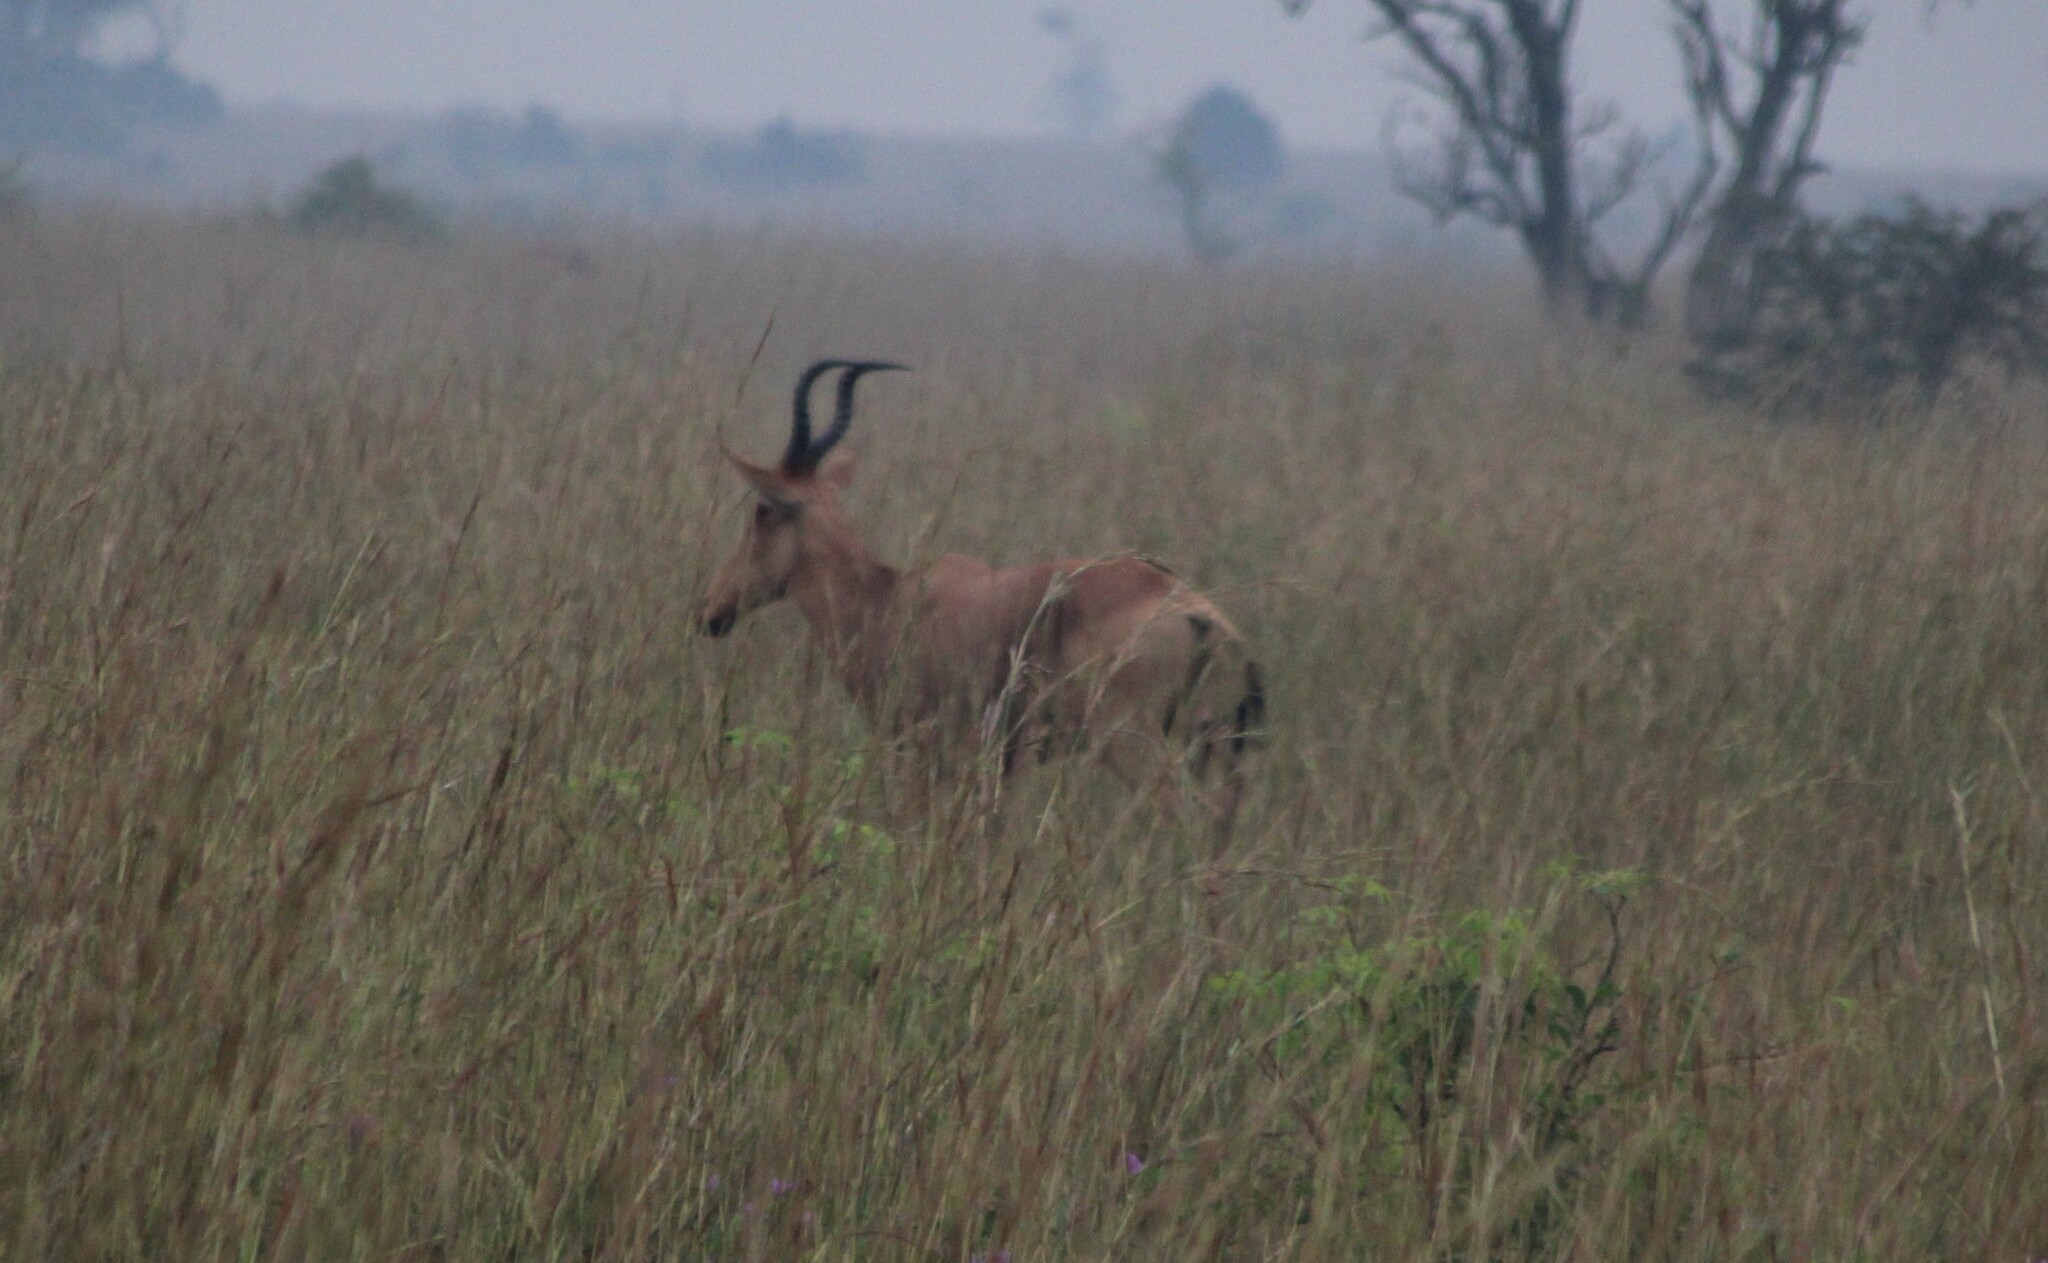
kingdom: Animalia
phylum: Chordata
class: Mammalia
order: Artiodactyla
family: Bovidae
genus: Alcelaphus
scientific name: Alcelaphus buselaphus
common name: Hartebeest
